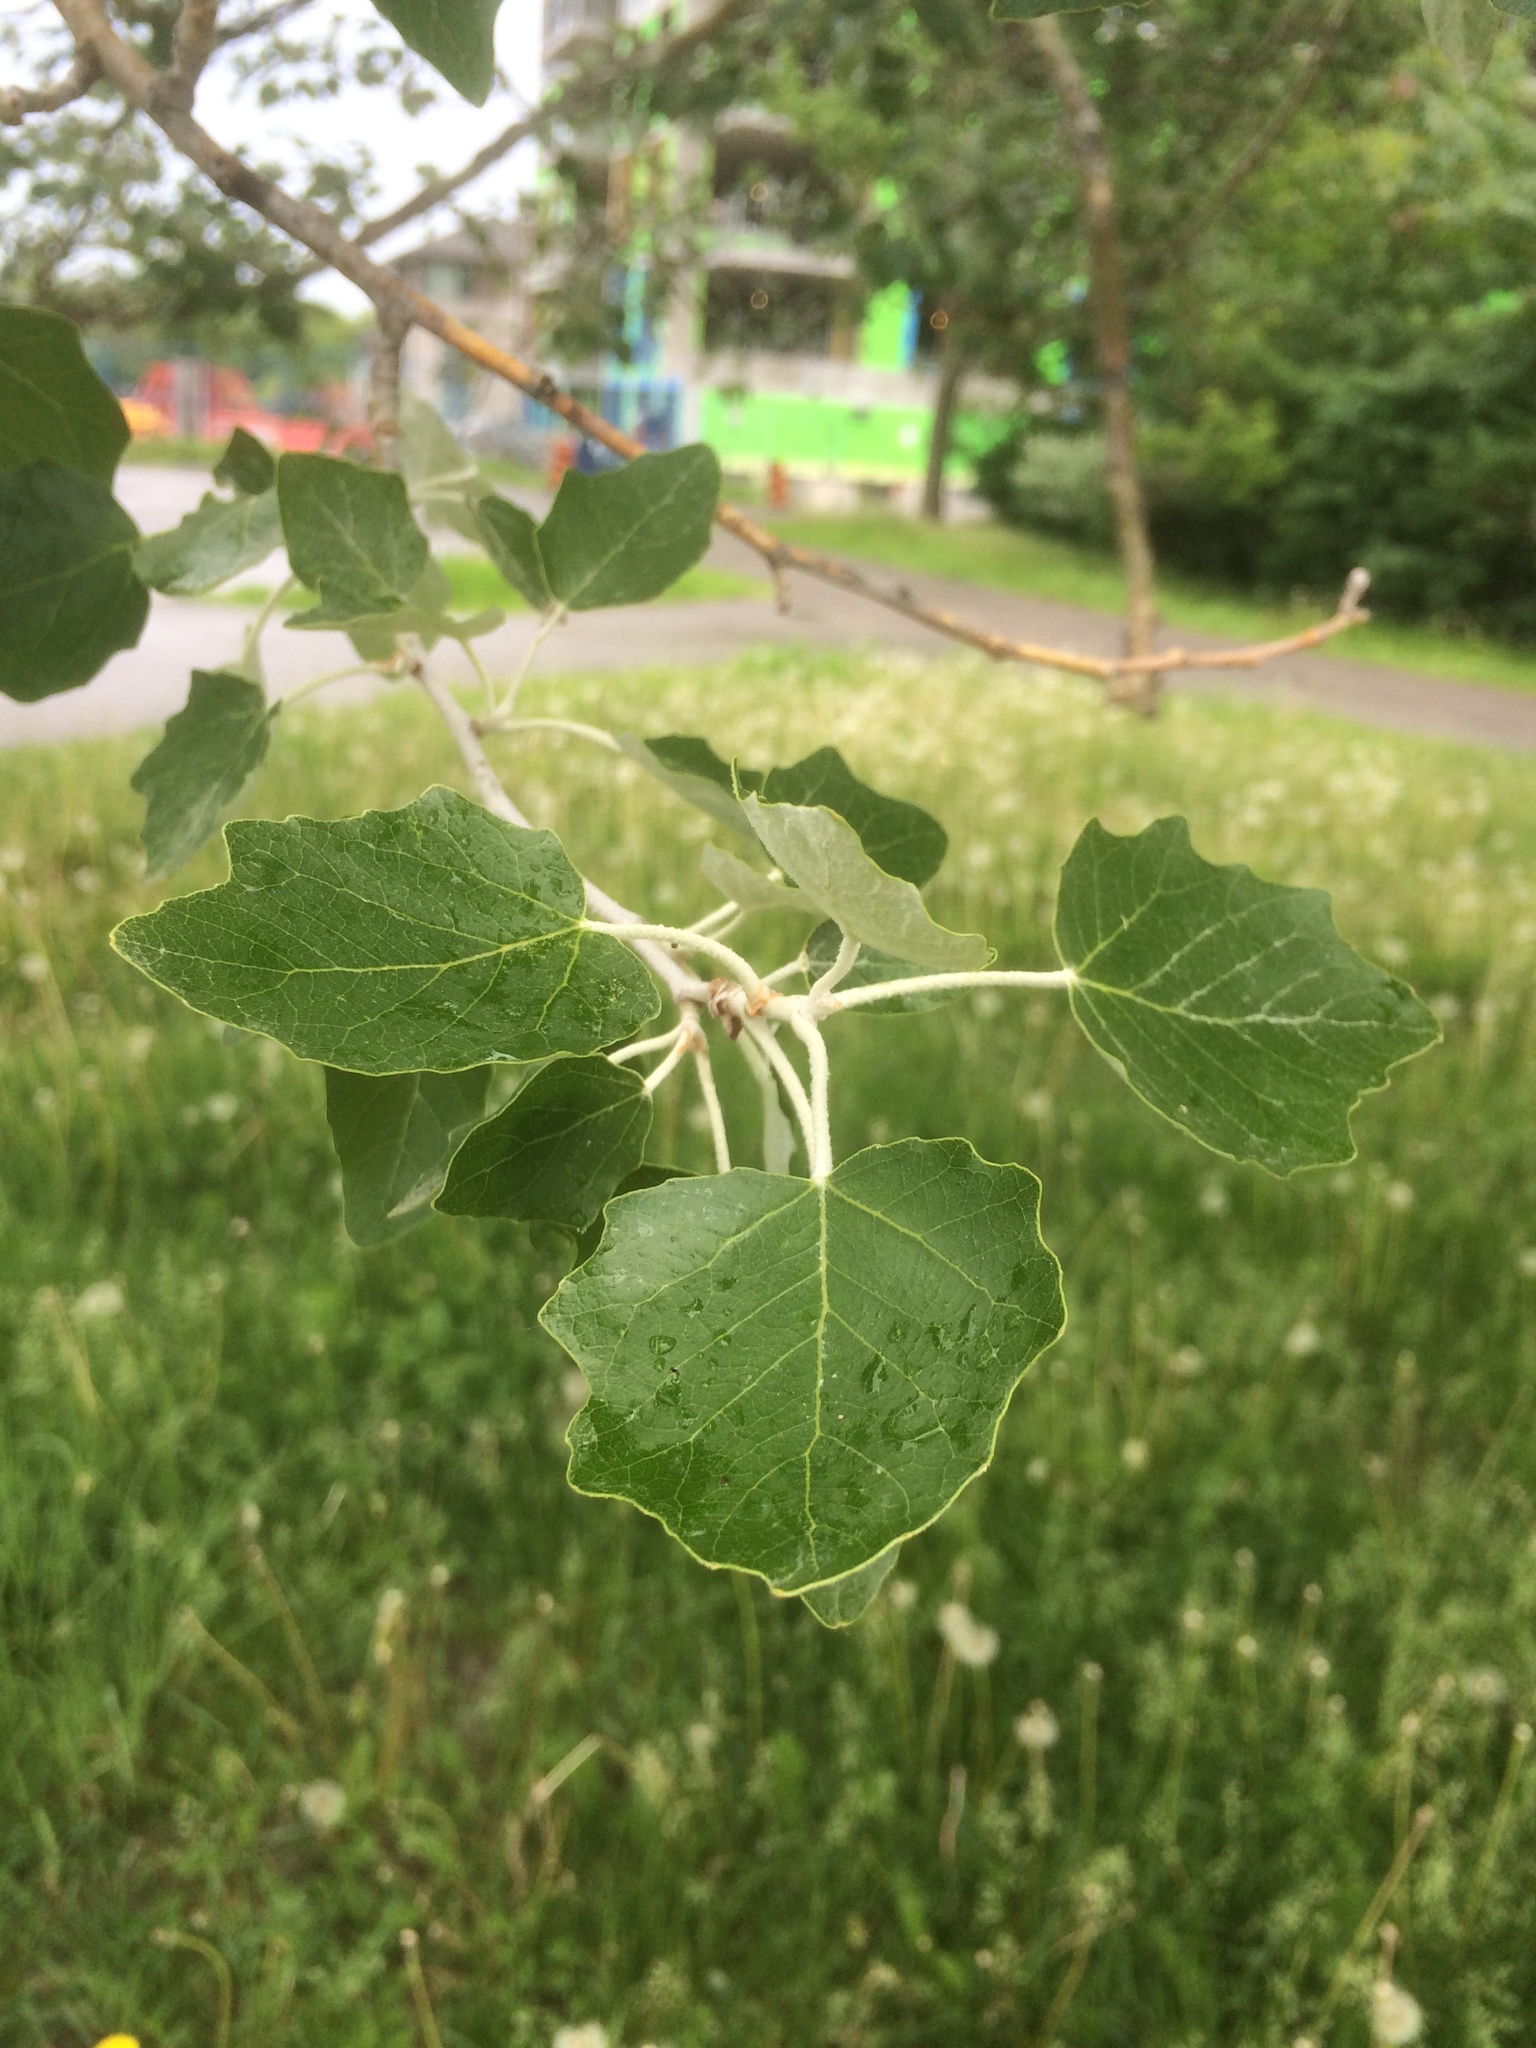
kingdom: Plantae
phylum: Tracheophyta
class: Magnoliopsida
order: Malpighiales
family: Salicaceae
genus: Populus
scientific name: Populus alba
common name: White poplar
